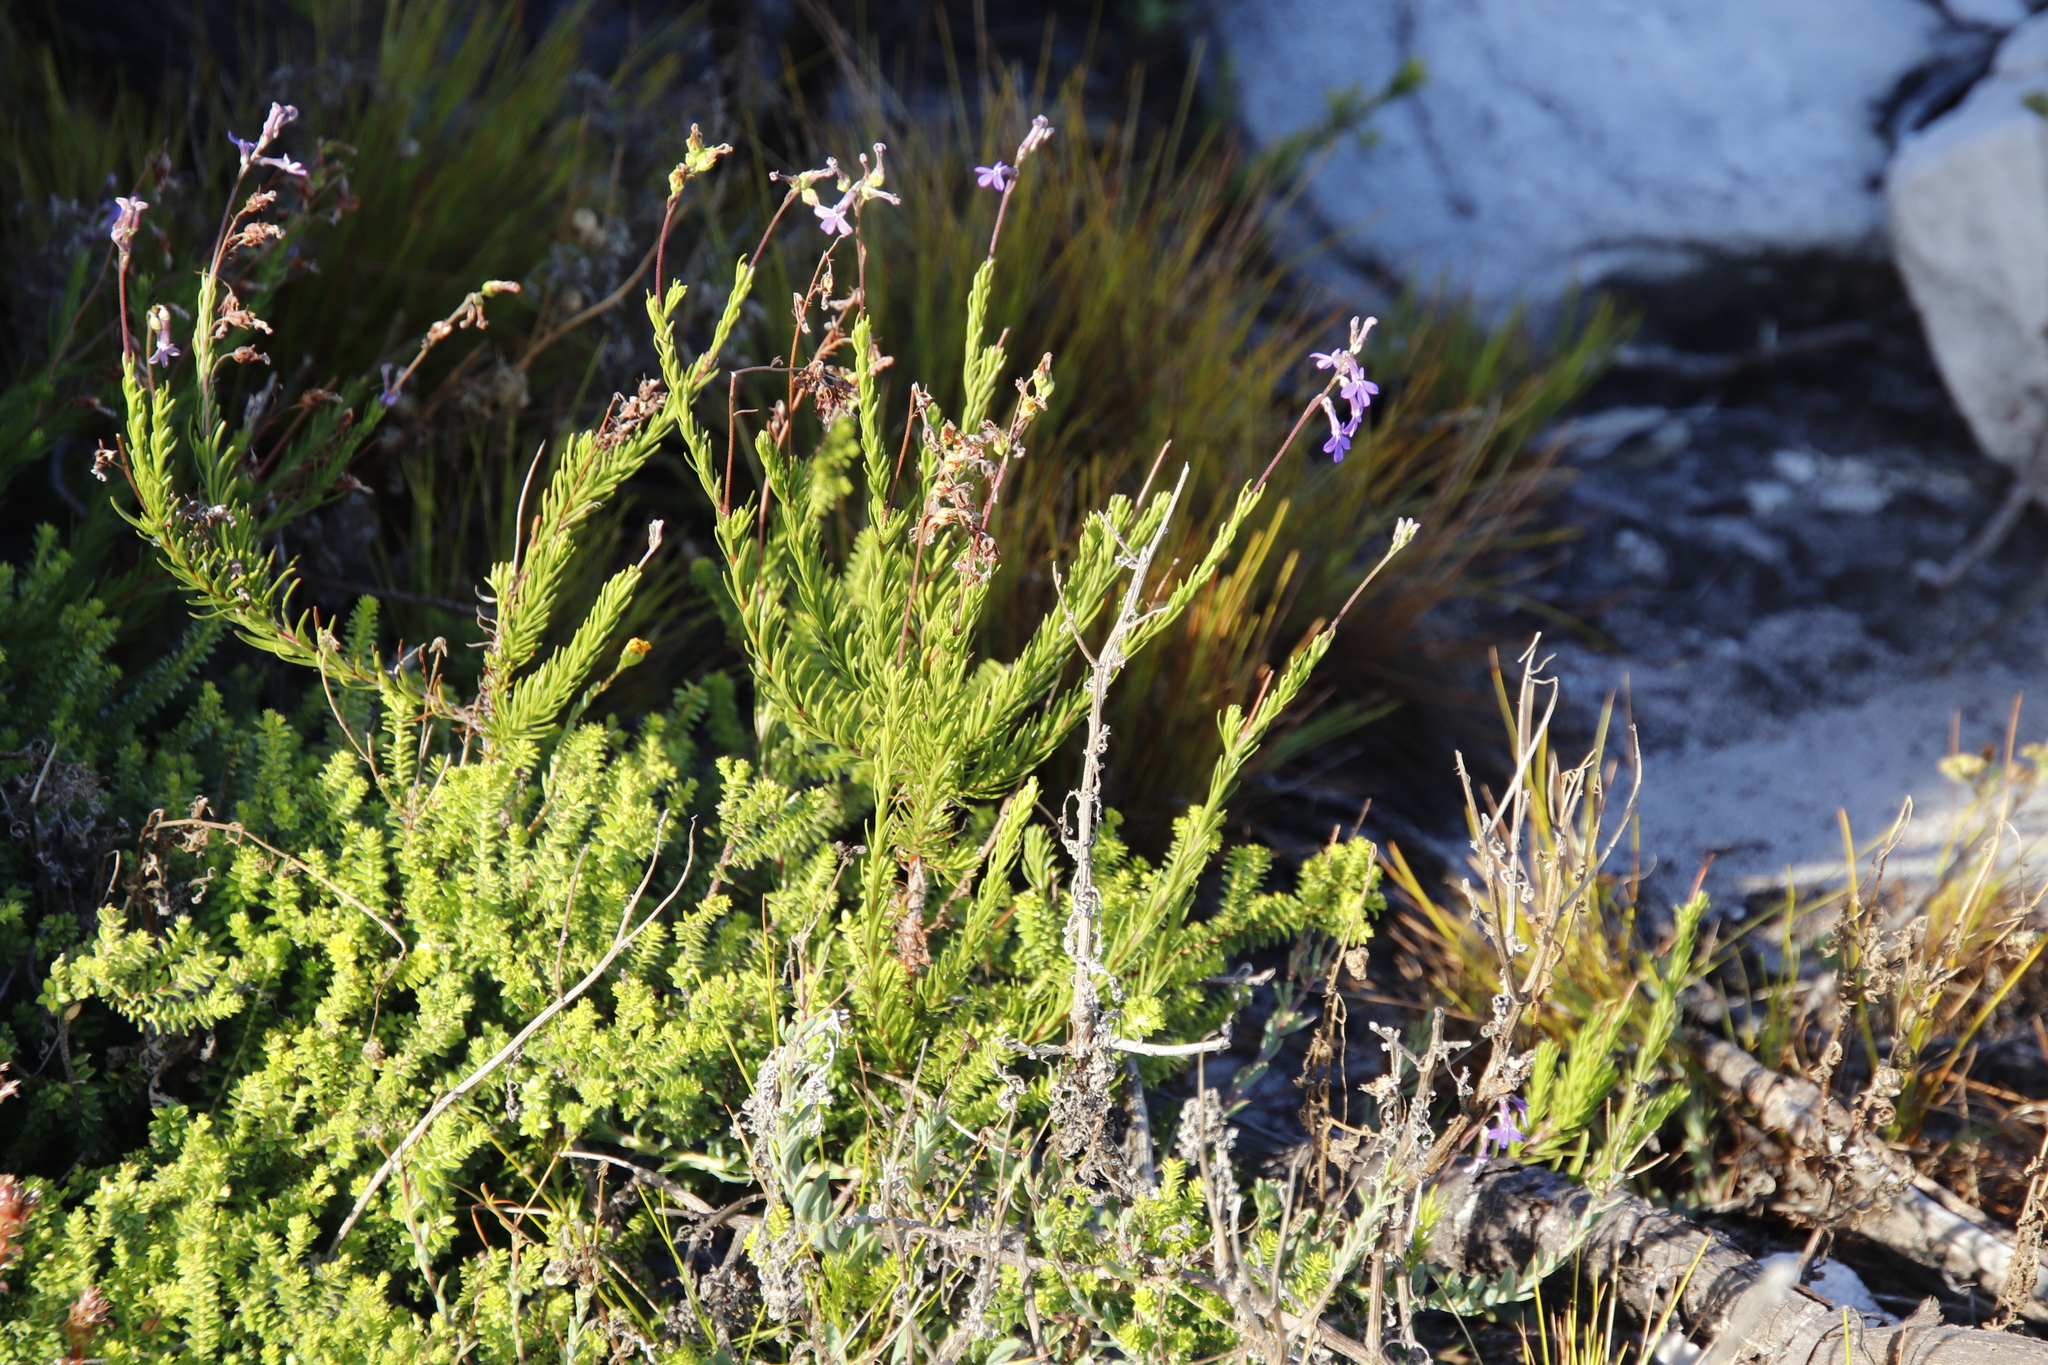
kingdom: Plantae
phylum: Tracheophyta
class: Magnoliopsida
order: Asterales
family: Campanulaceae
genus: Lobelia
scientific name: Lobelia pinifolia
